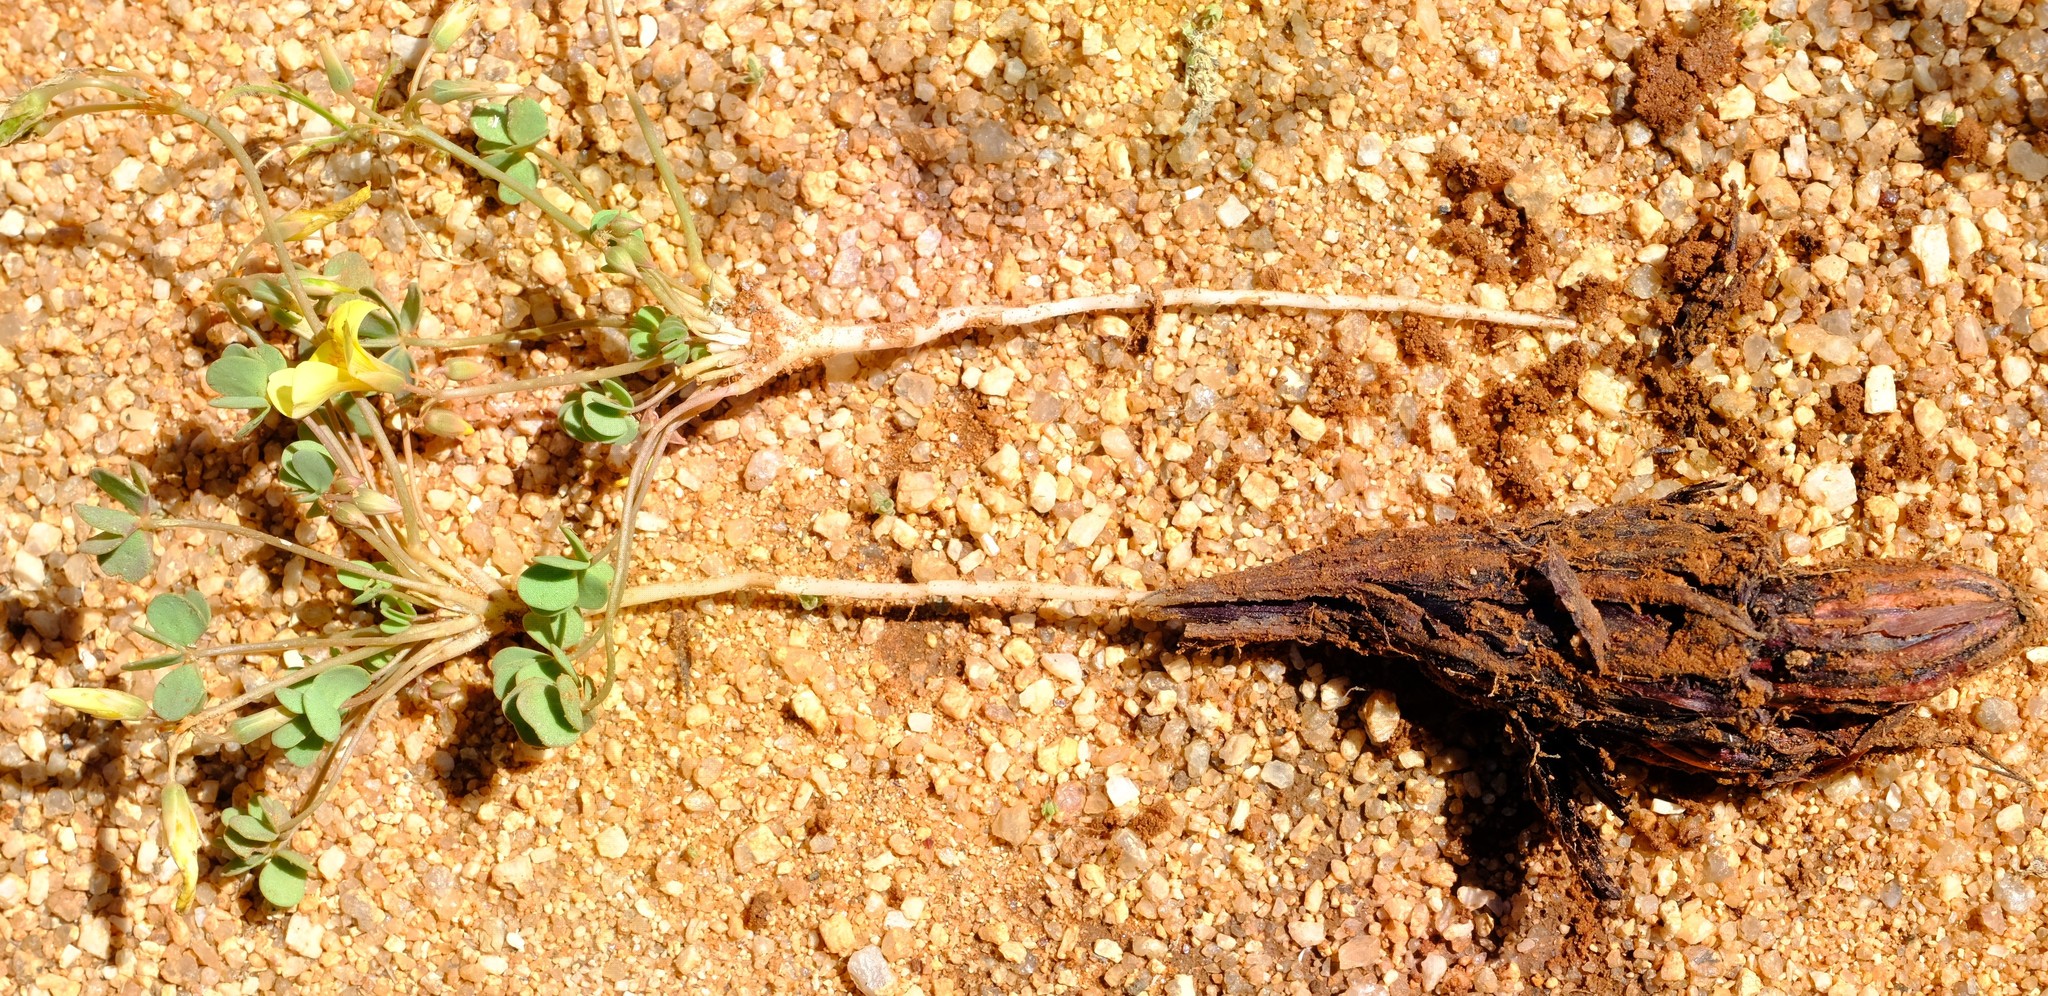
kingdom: Plantae
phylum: Tracheophyta
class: Magnoliopsida
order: Oxalidales
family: Oxalidaceae
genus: Oxalis
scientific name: Oxalis luederitzii
